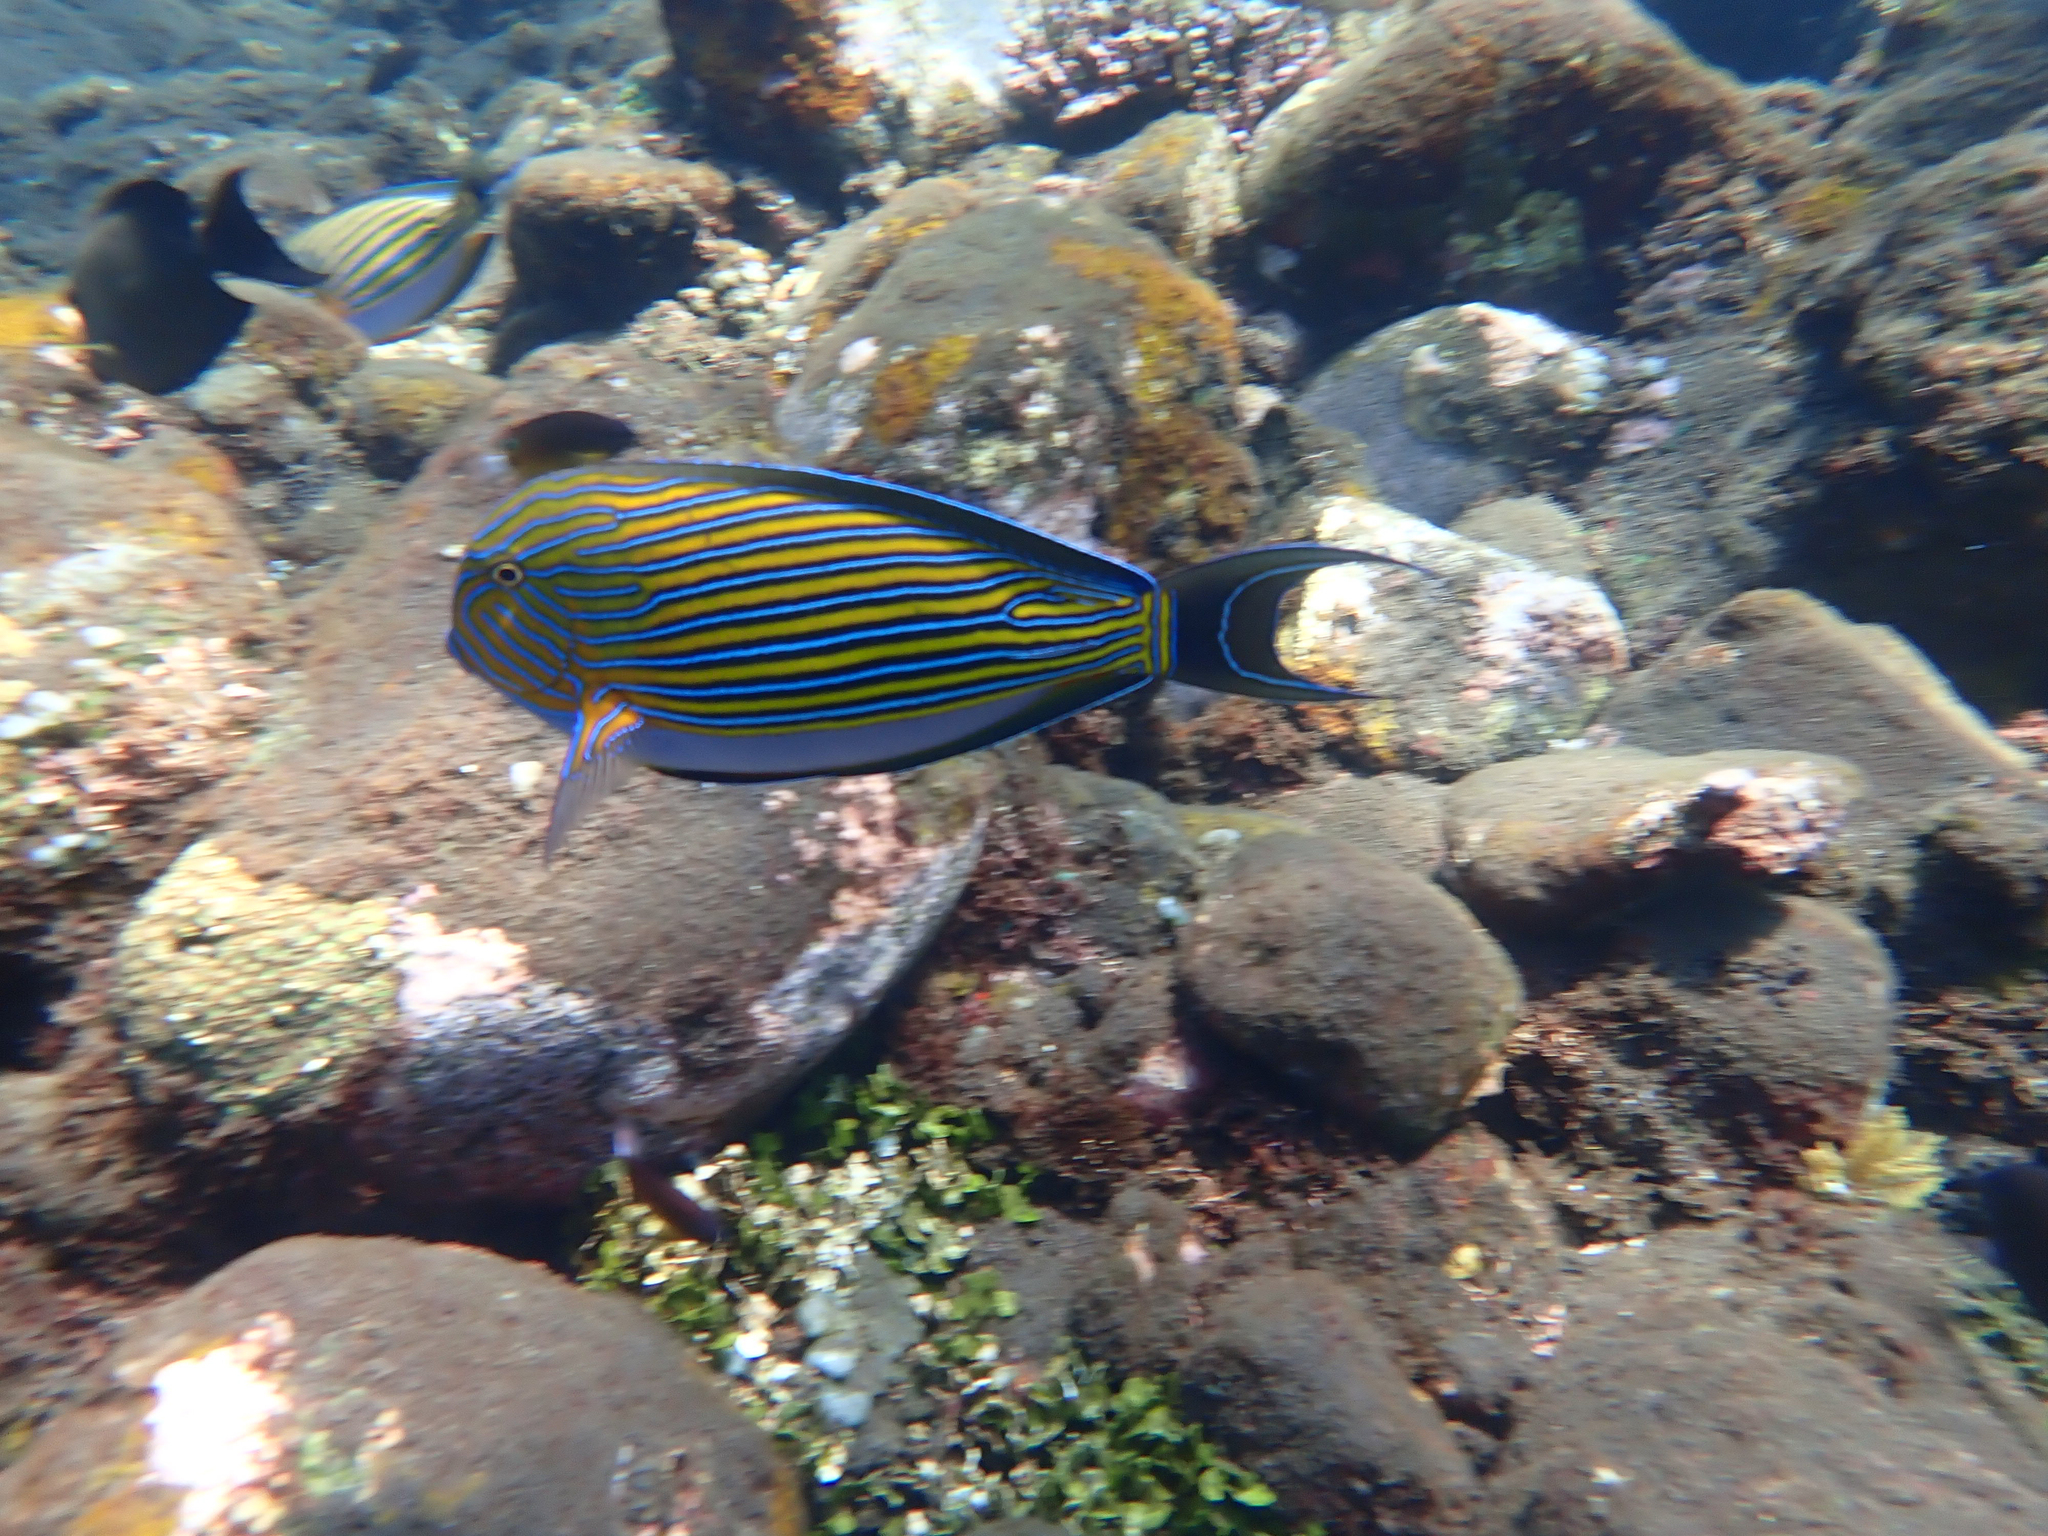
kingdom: Animalia
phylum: Chordata
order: Perciformes
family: Acanthuridae
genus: Acanthurus
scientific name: Acanthurus lineatus
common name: Striped surgeonfish
